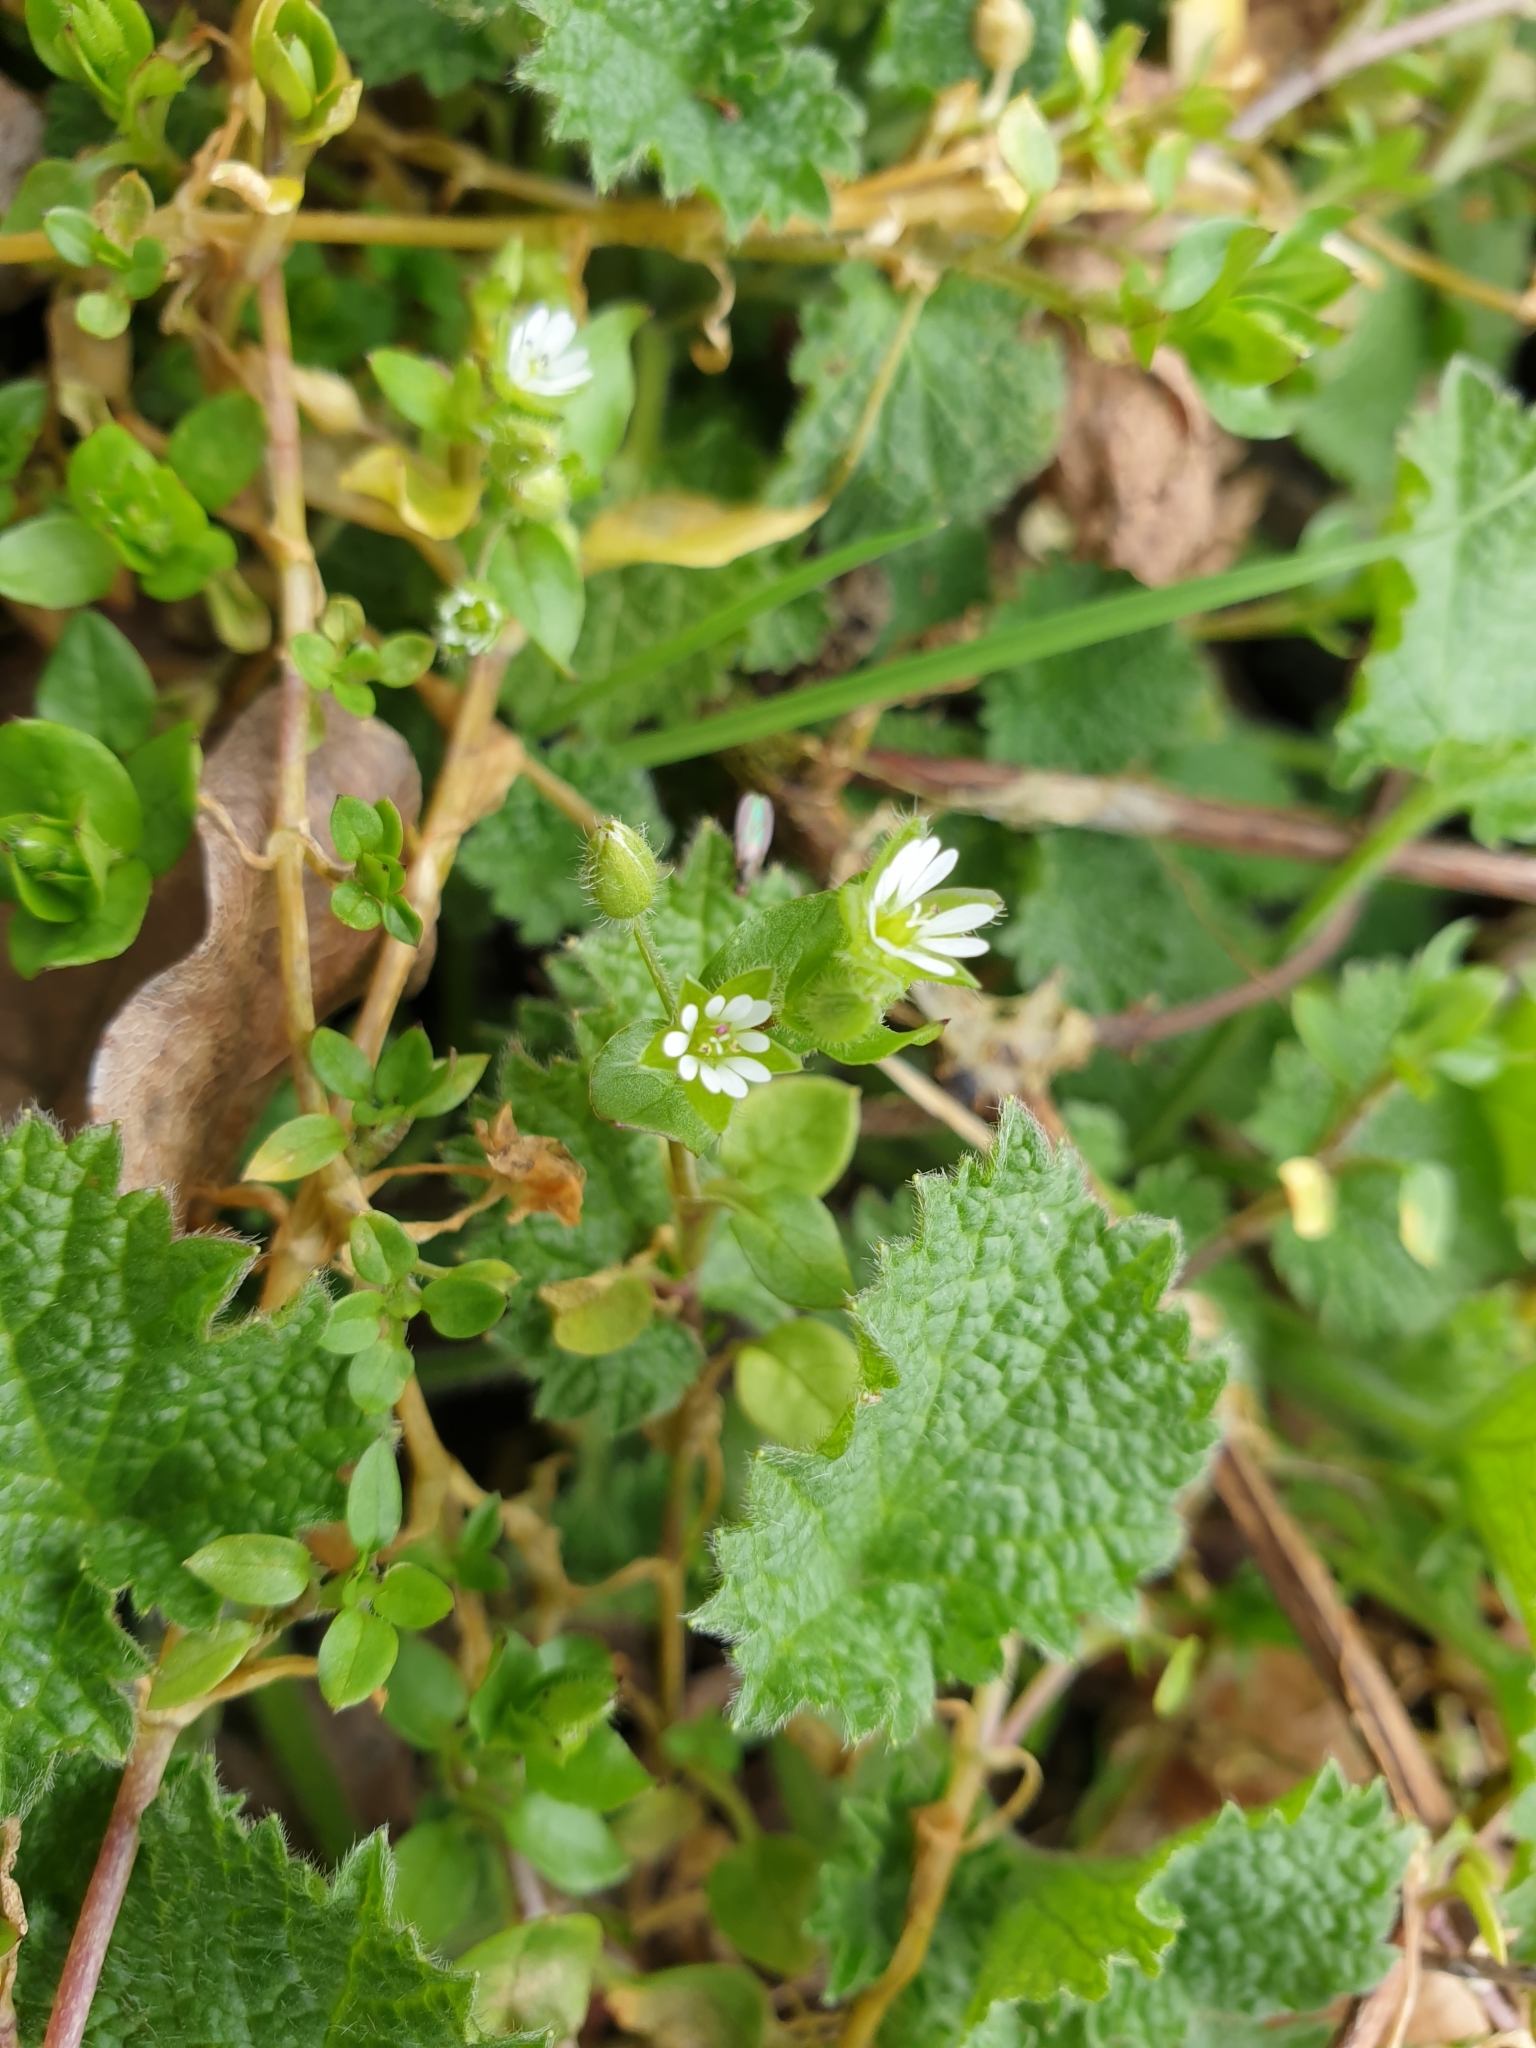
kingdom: Plantae
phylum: Tracheophyta
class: Magnoliopsida
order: Caryophyllales
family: Caryophyllaceae
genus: Stellaria
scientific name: Stellaria media
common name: Common chickweed
